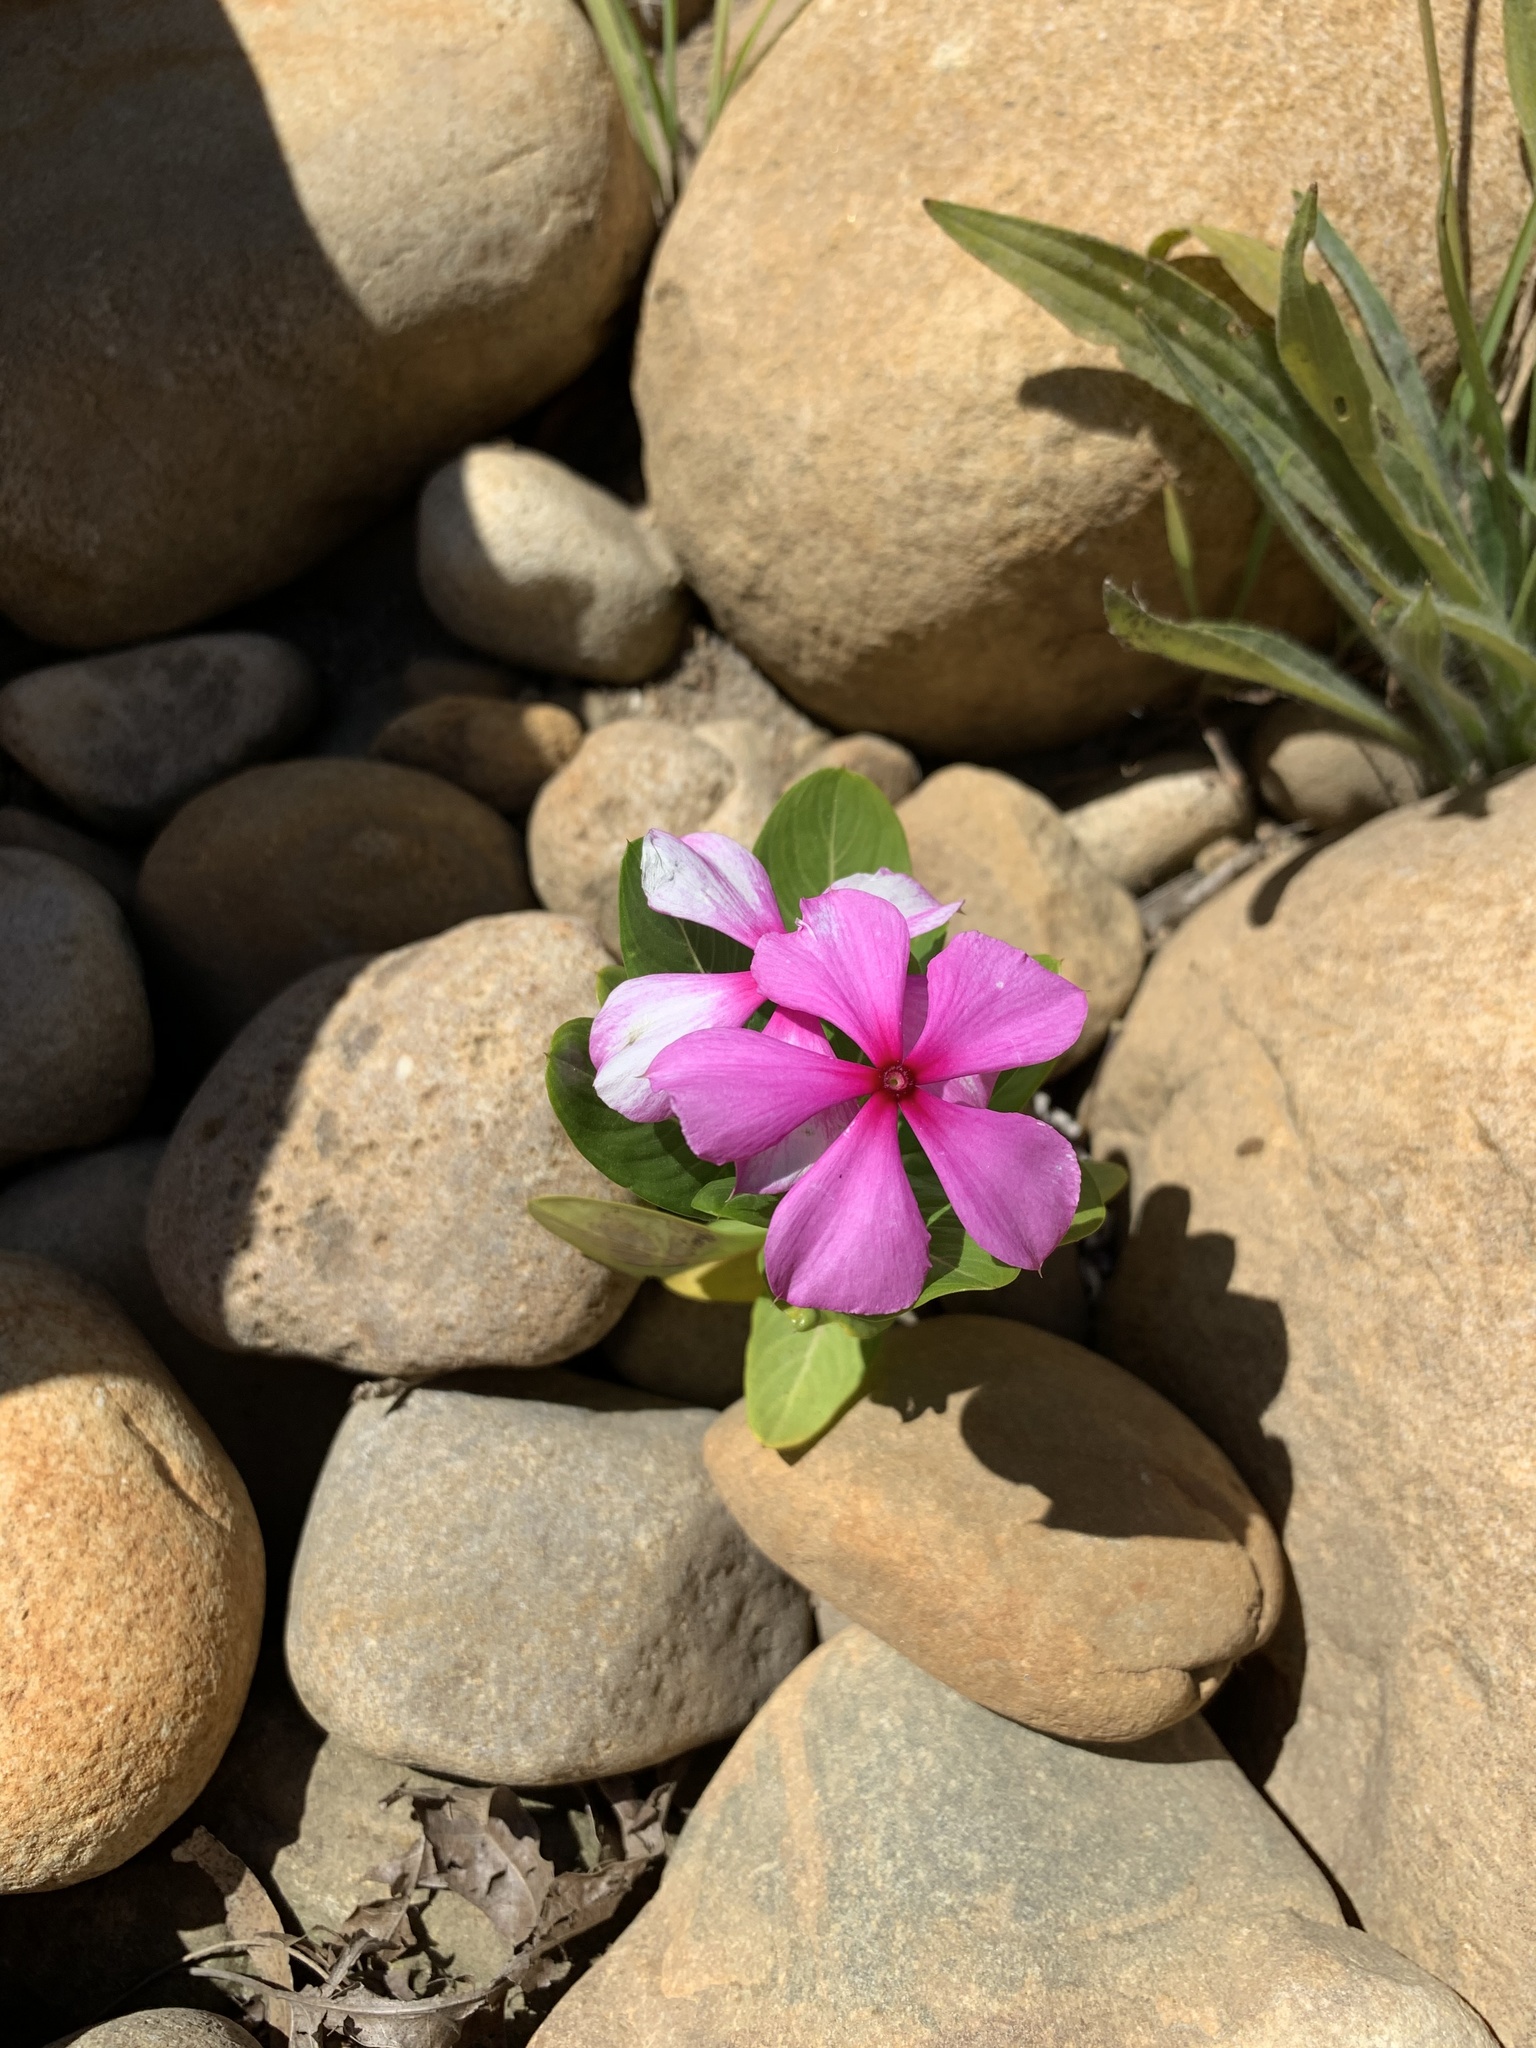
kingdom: Plantae
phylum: Tracheophyta
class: Magnoliopsida
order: Gentianales
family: Apocynaceae
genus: Catharanthus
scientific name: Catharanthus roseus
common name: Madagascar periwinkle
